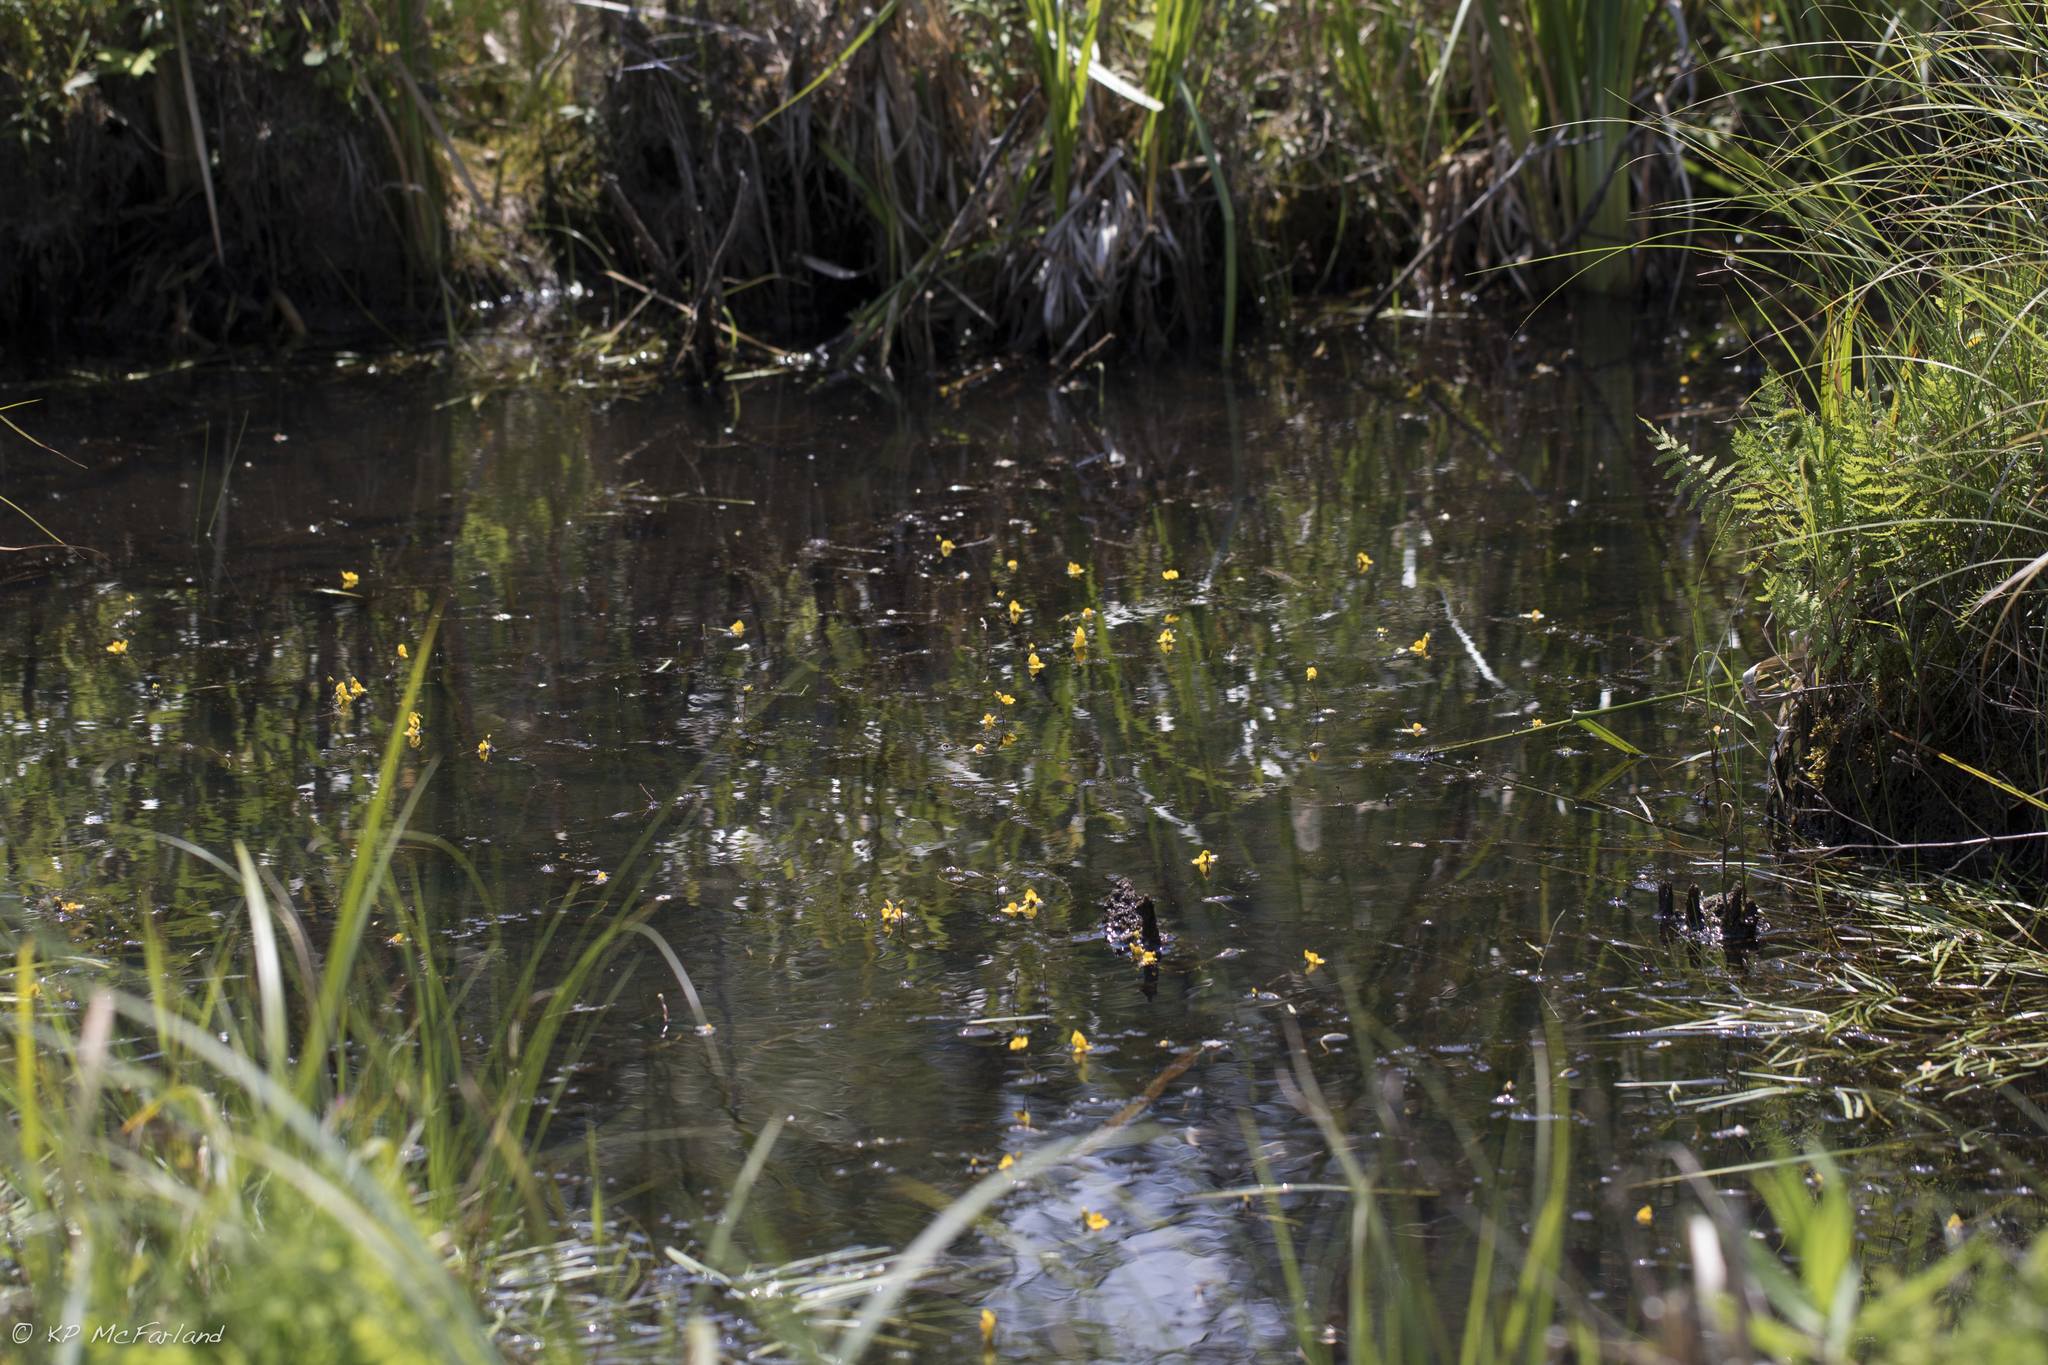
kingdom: Plantae
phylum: Tracheophyta
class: Magnoliopsida
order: Lamiales
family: Lentibulariaceae
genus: Utricularia
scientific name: Utricularia macrorhiza
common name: Common bladderwort
